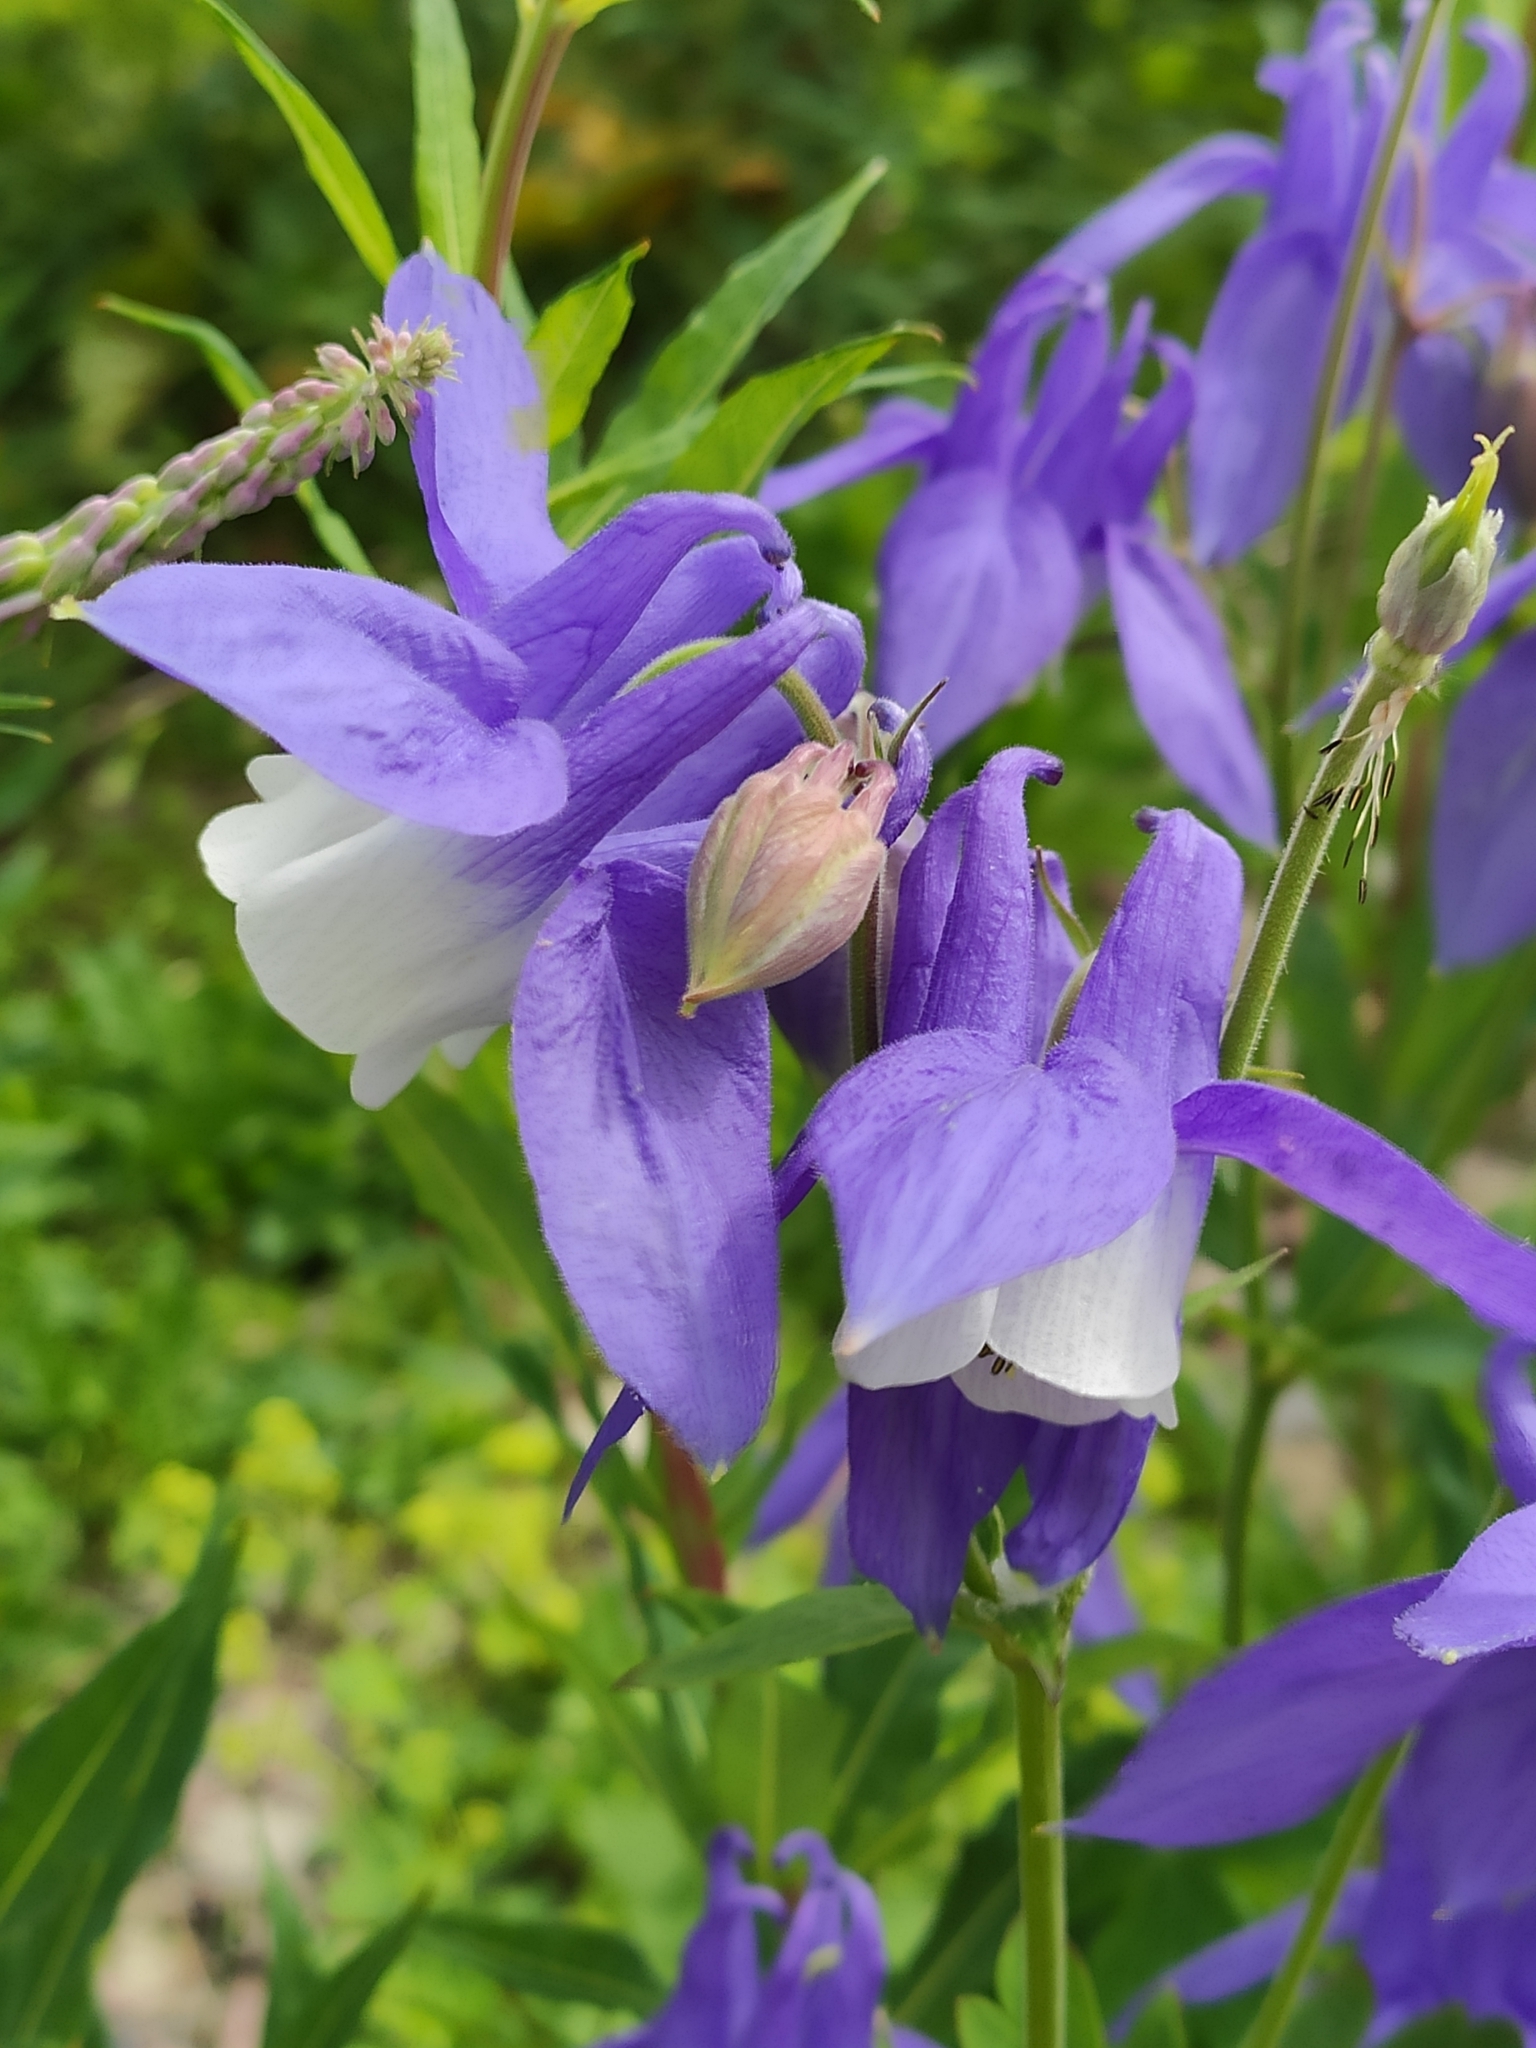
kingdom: Plantae
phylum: Tracheophyta
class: Magnoliopsida
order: Ranunculales
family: Ranunculaceae
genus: Aquilegia
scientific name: Aquilegia olympica
